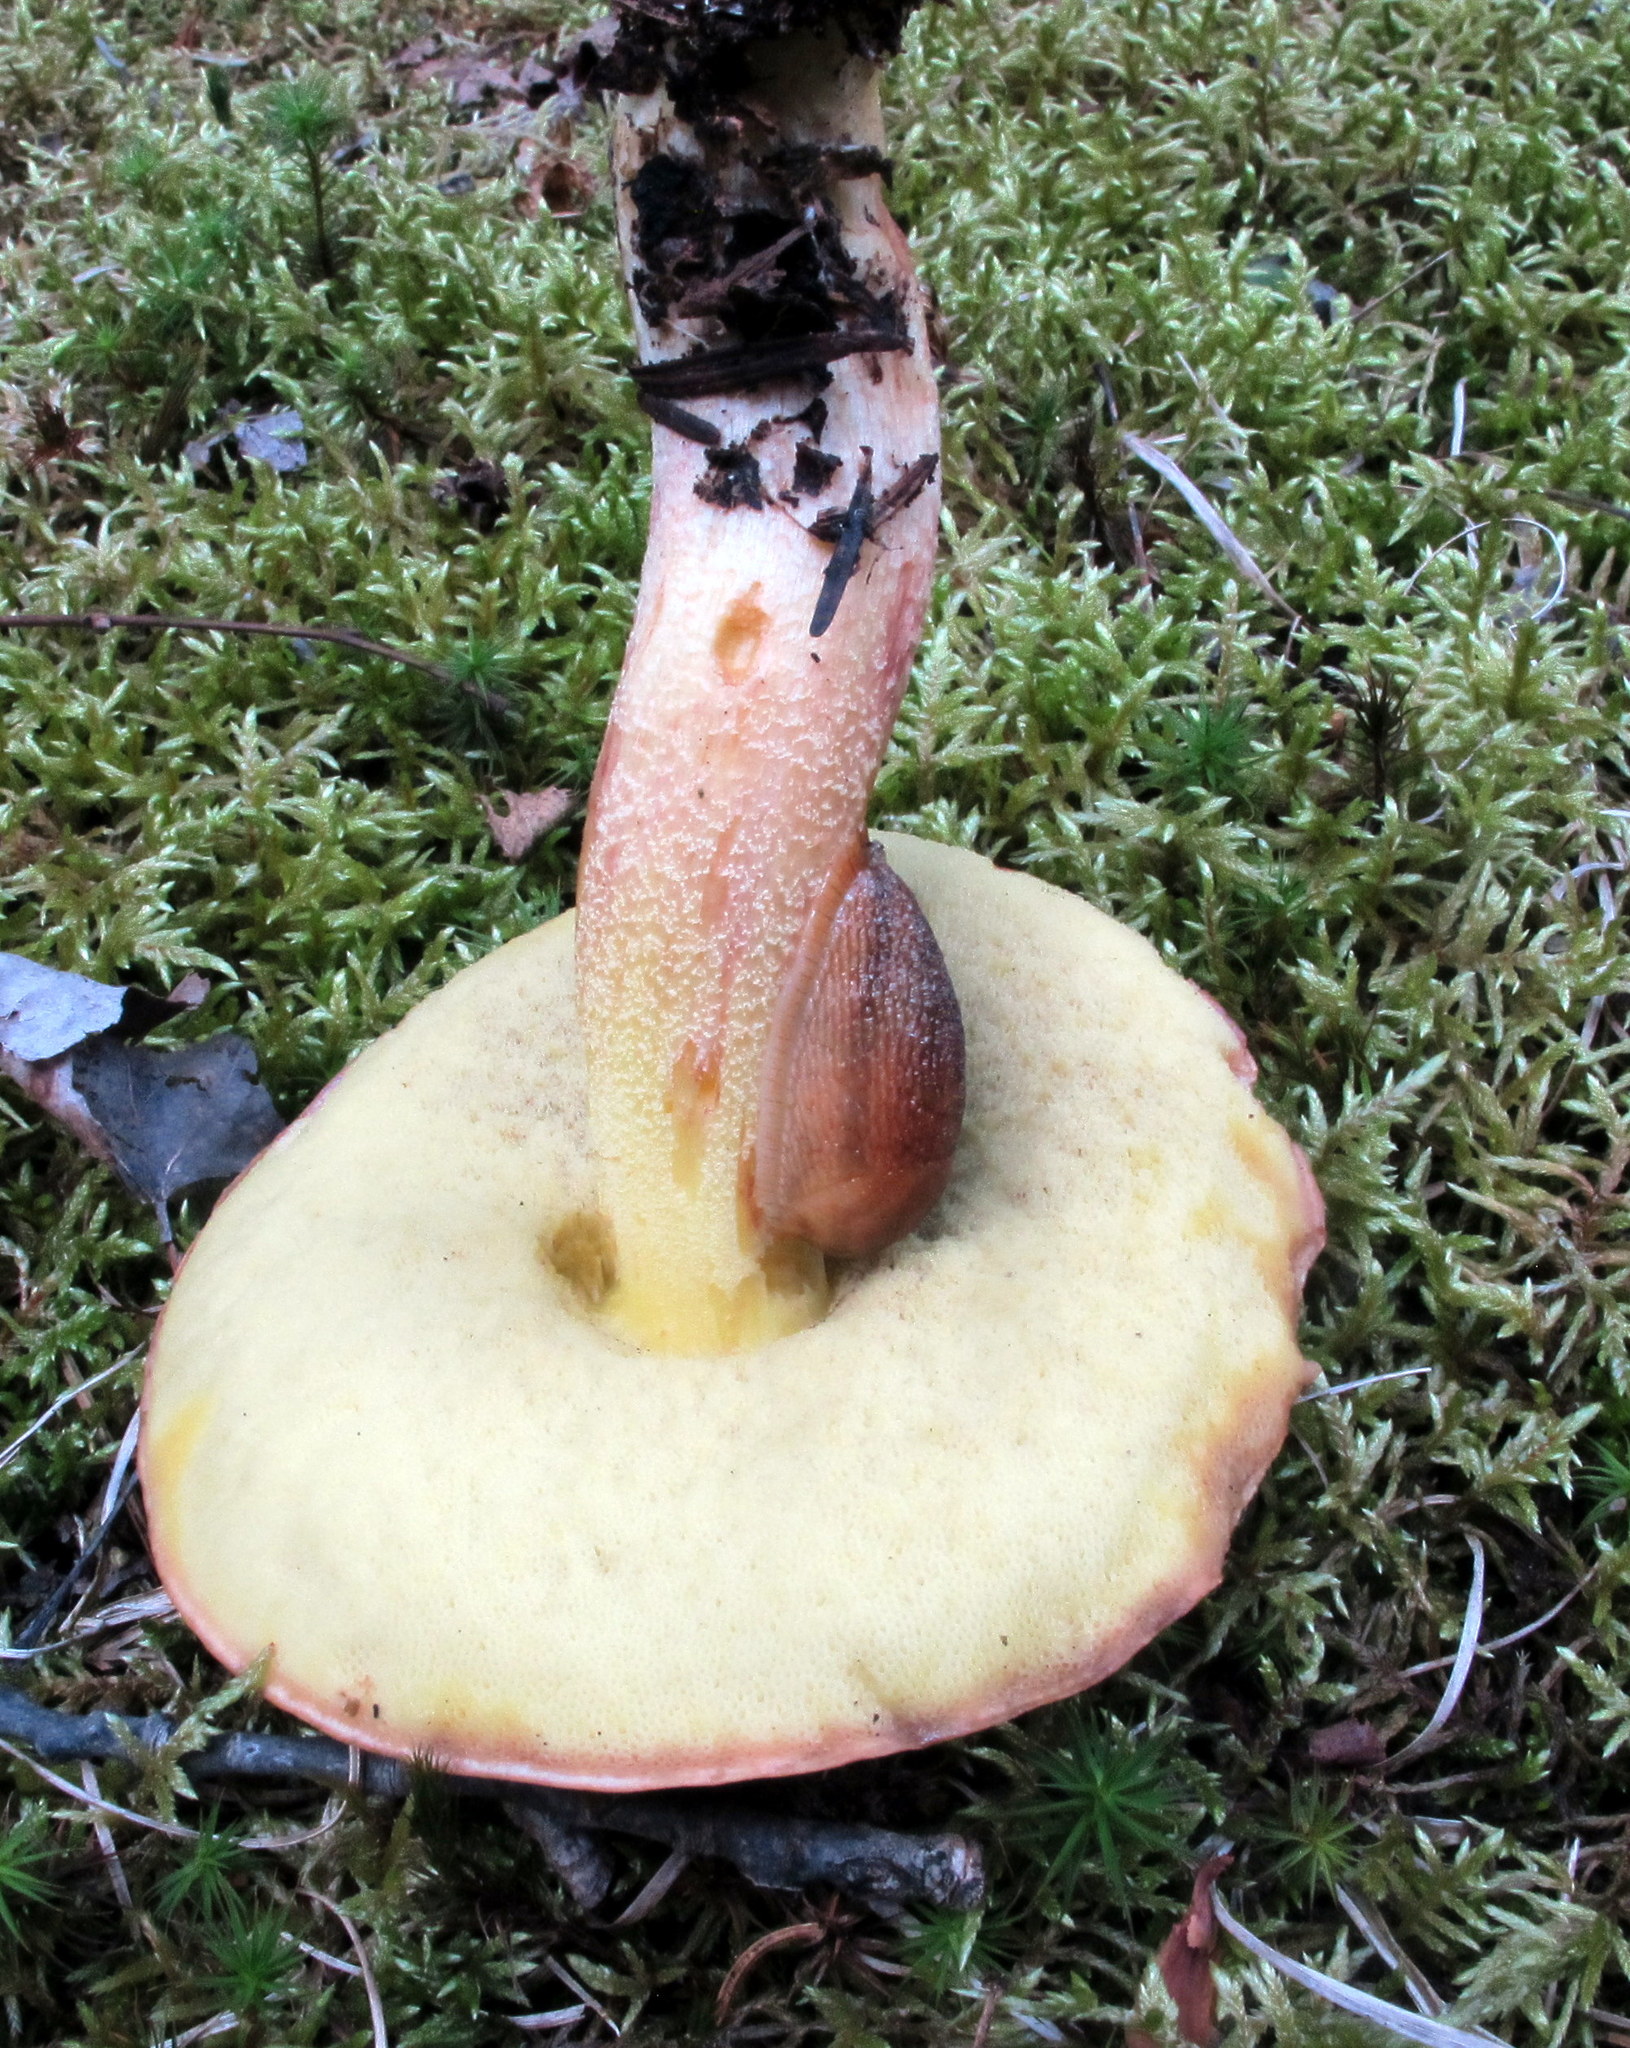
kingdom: Fungi
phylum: Basidiomycota
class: Agaricomycetes
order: Boletales
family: Boletaceae
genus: Hemileccinum
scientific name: Hemileccinum subglabripes
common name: Smoothish-stemmed bolete
